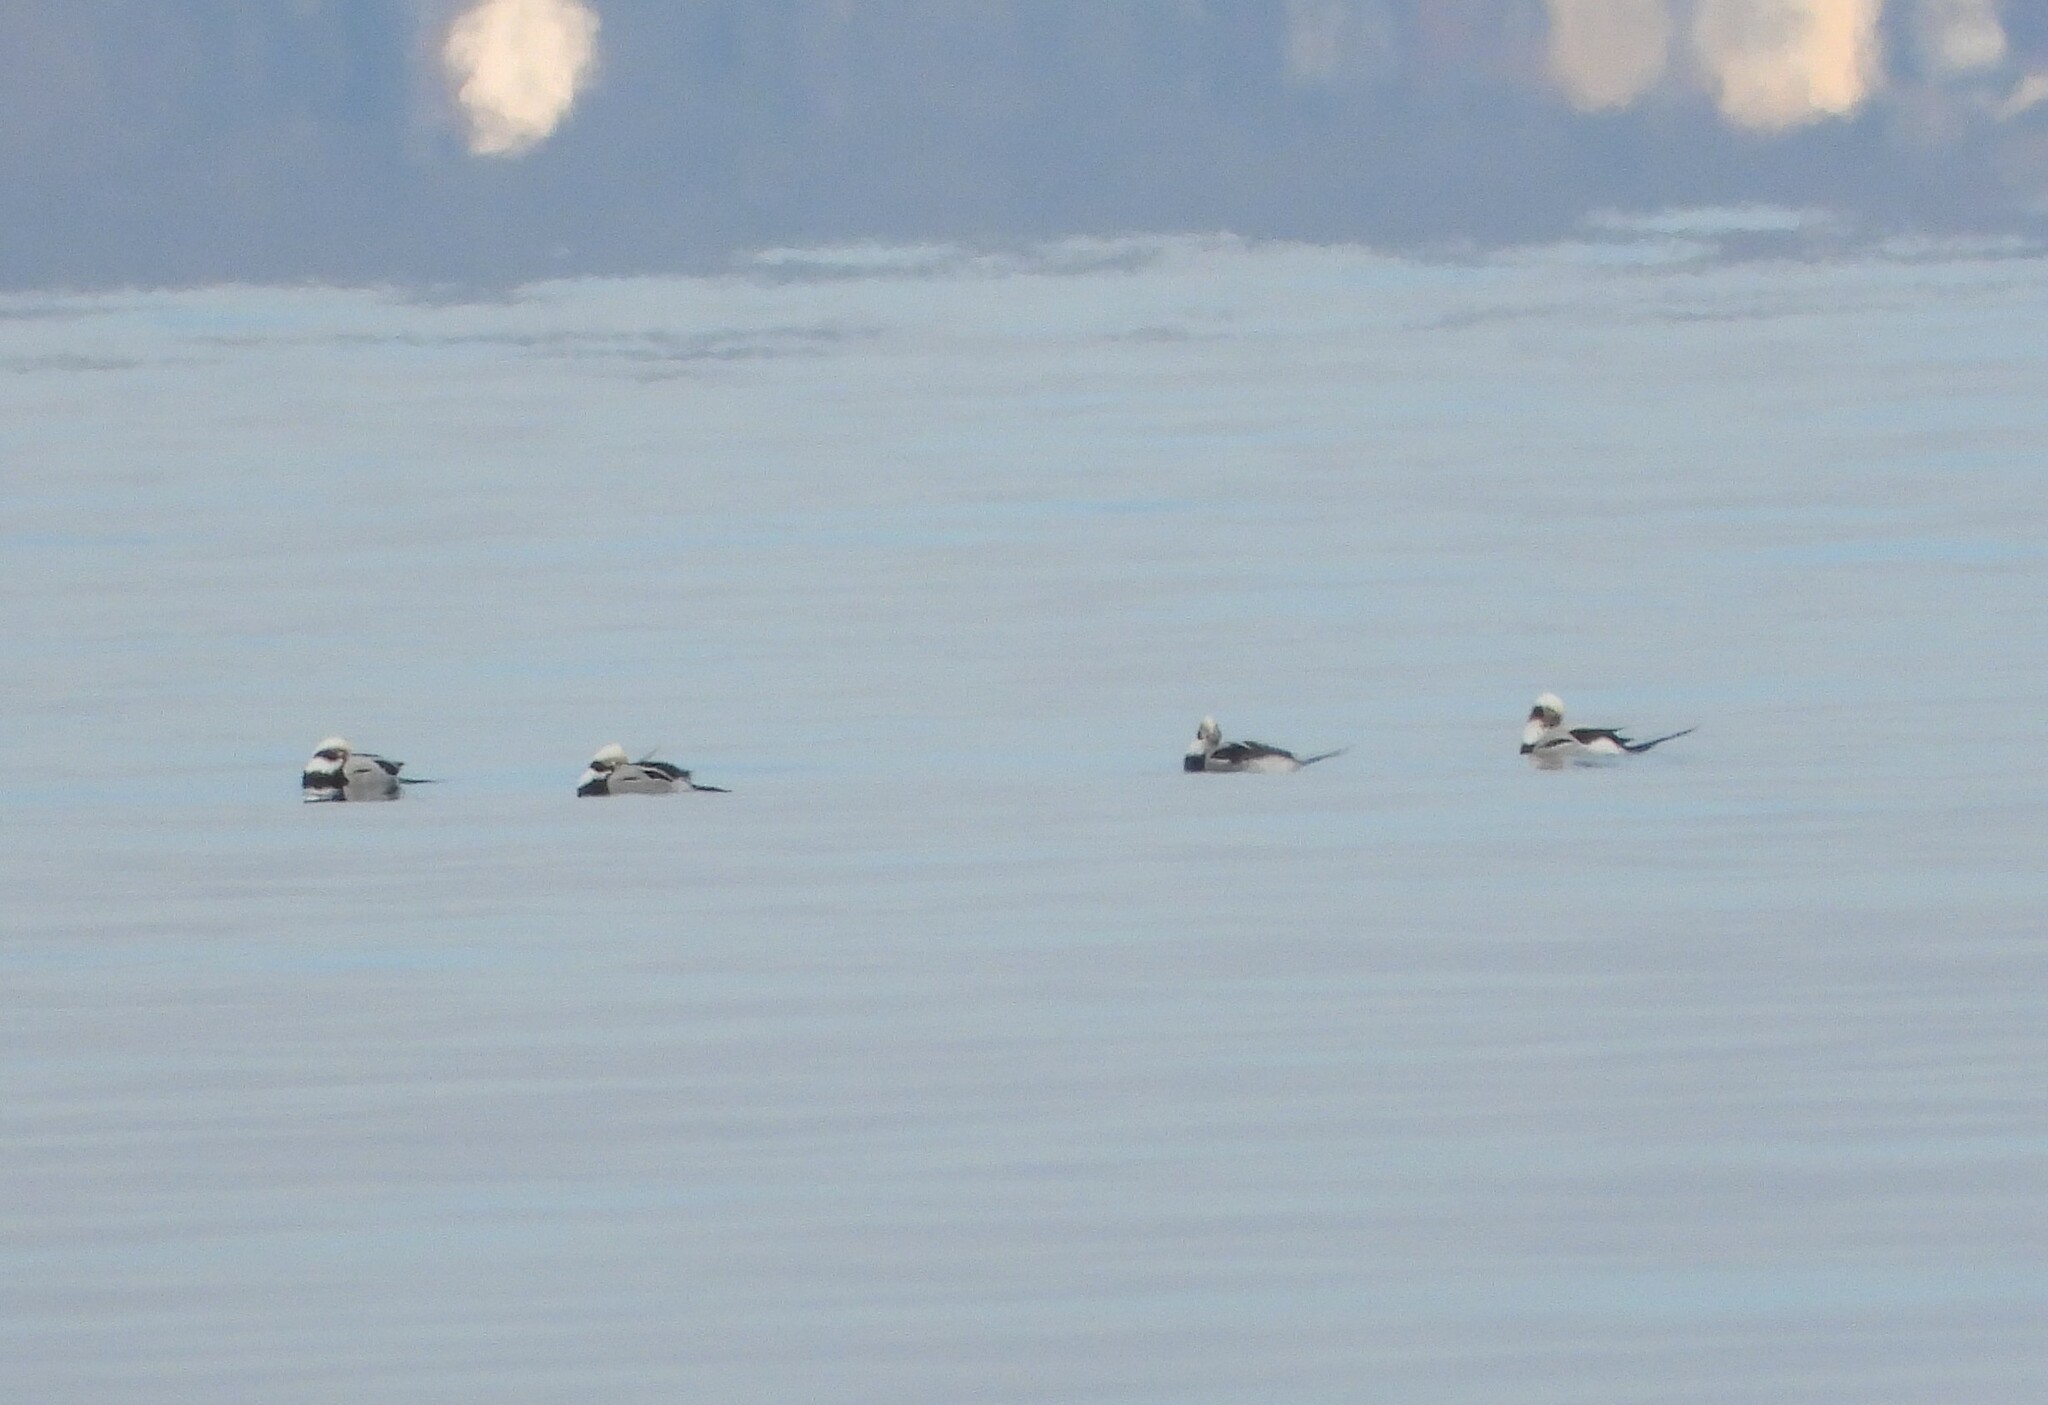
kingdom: Animalia
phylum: Chordata
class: Aves
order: Anseriformes
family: Anatidae
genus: Clangula
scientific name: Clangula hyemalis
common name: Long-tailed duck
